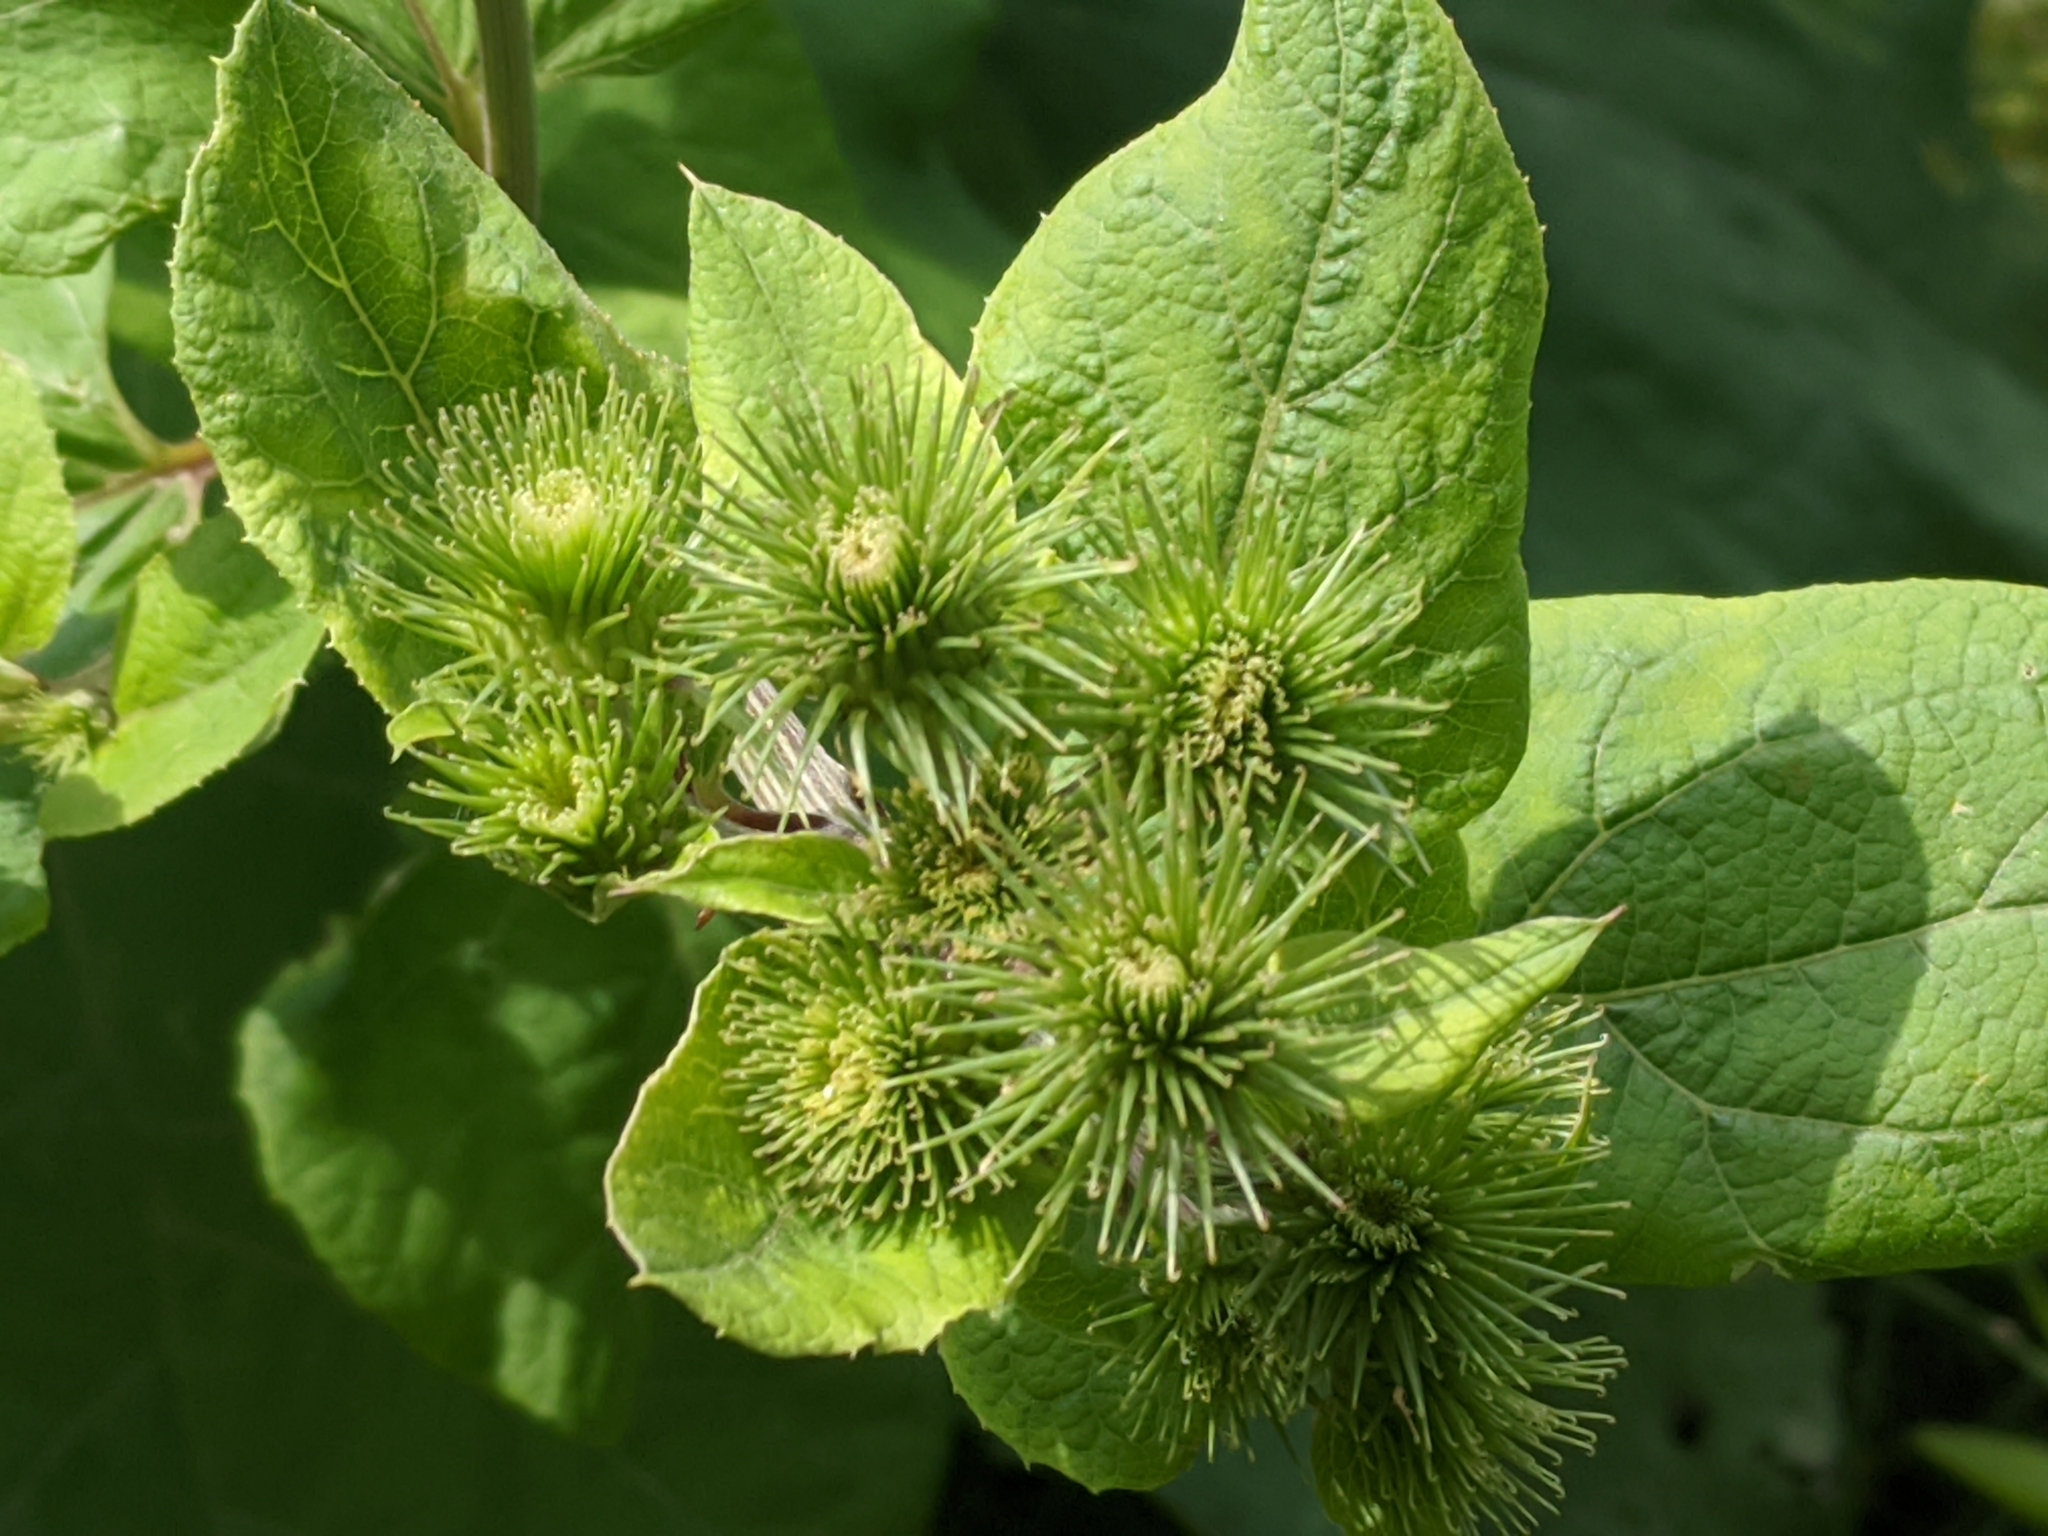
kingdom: Plantae
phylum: Tracheophyta
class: Magnoliopsida
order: Asterales
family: Asteraceae
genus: Arctium
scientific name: Arctium lappa
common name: Greater burdock
